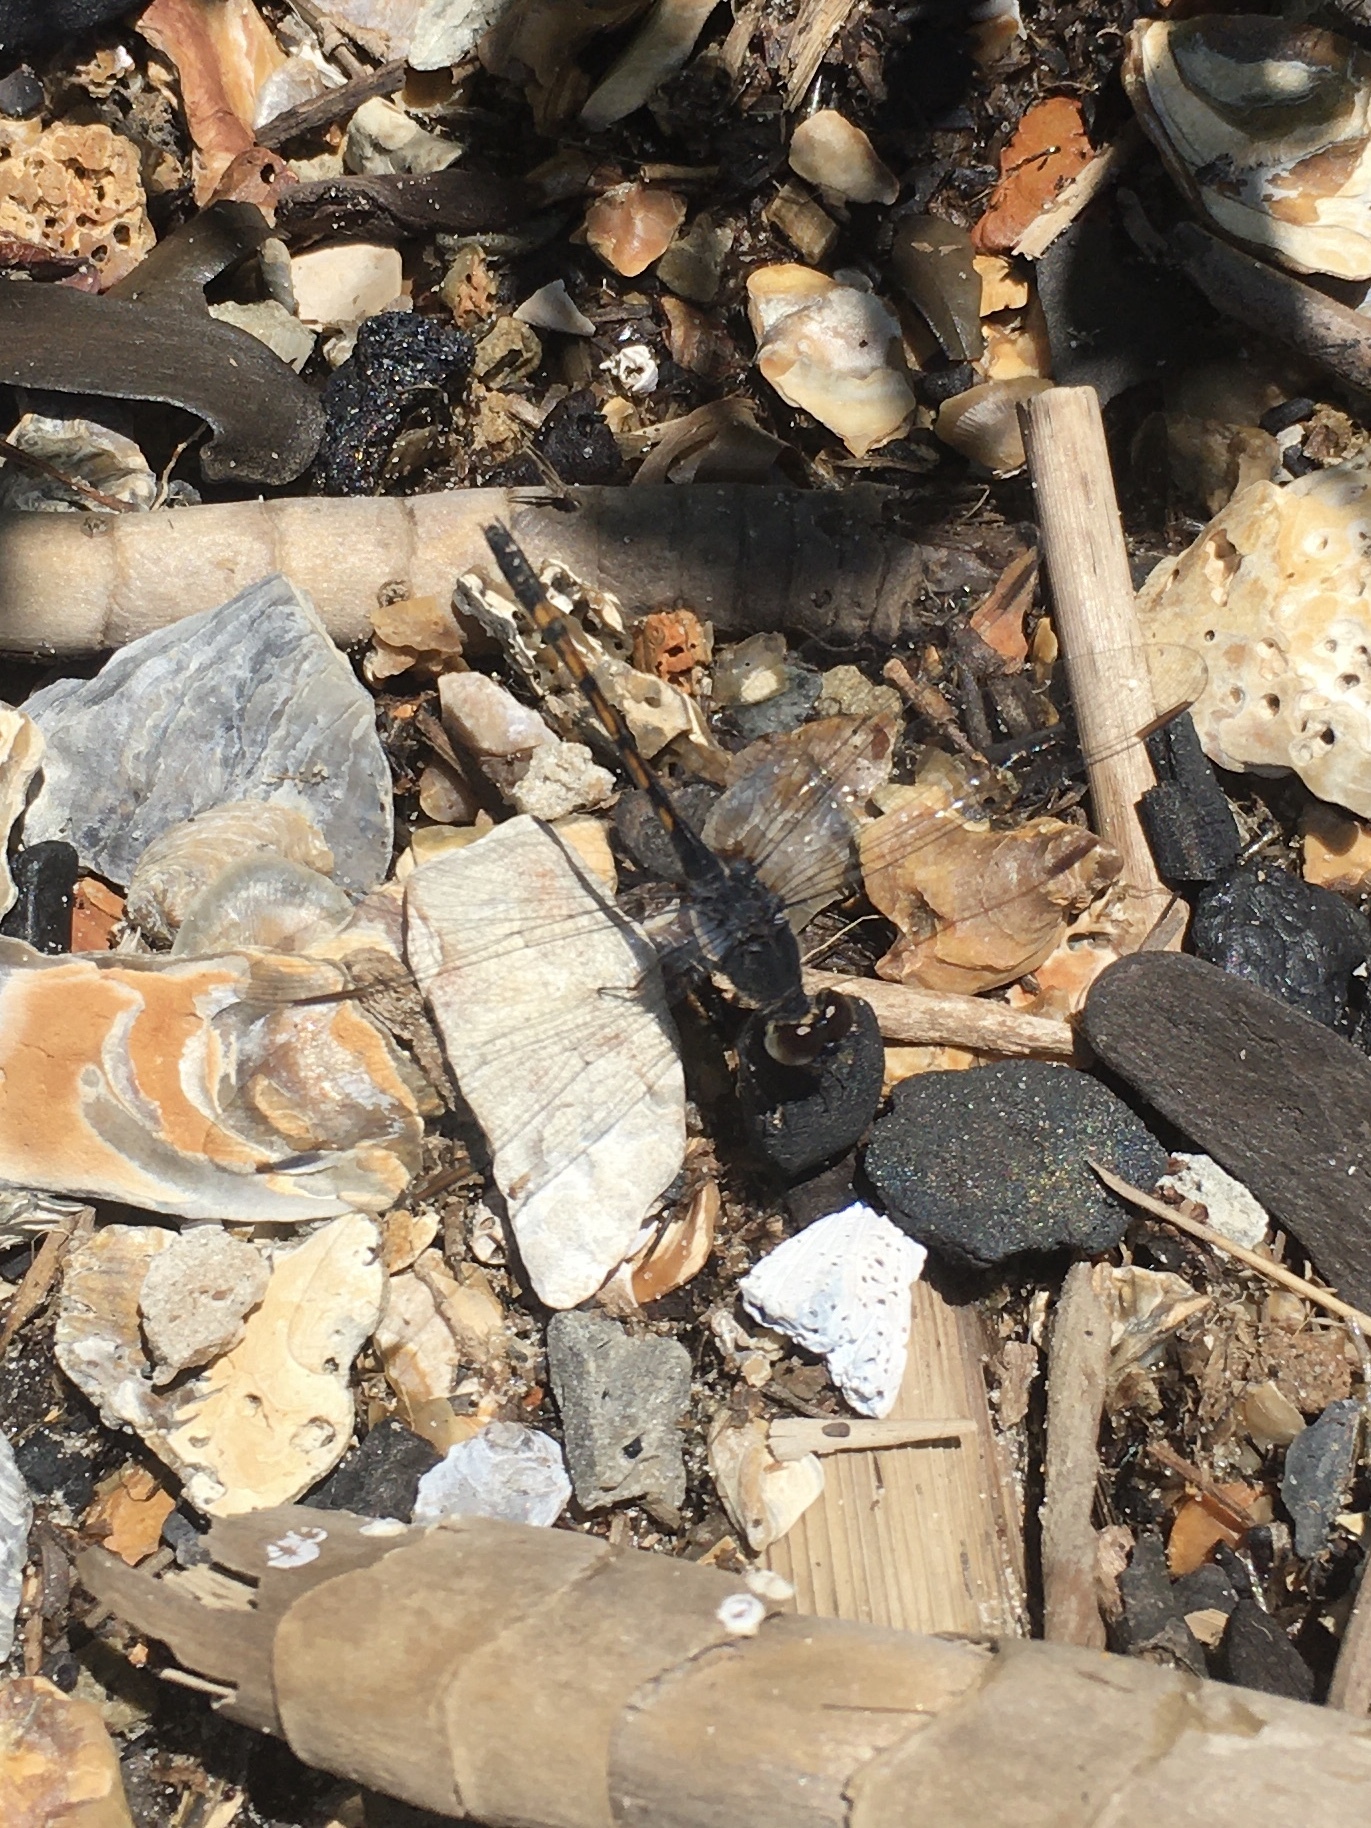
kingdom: Animalia
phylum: Arthropoda
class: Insecta
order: Odonata
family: Libellulidae
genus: Erythrodiplax
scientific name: Erythrodiplax berenice
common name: Seaside dragonlet
